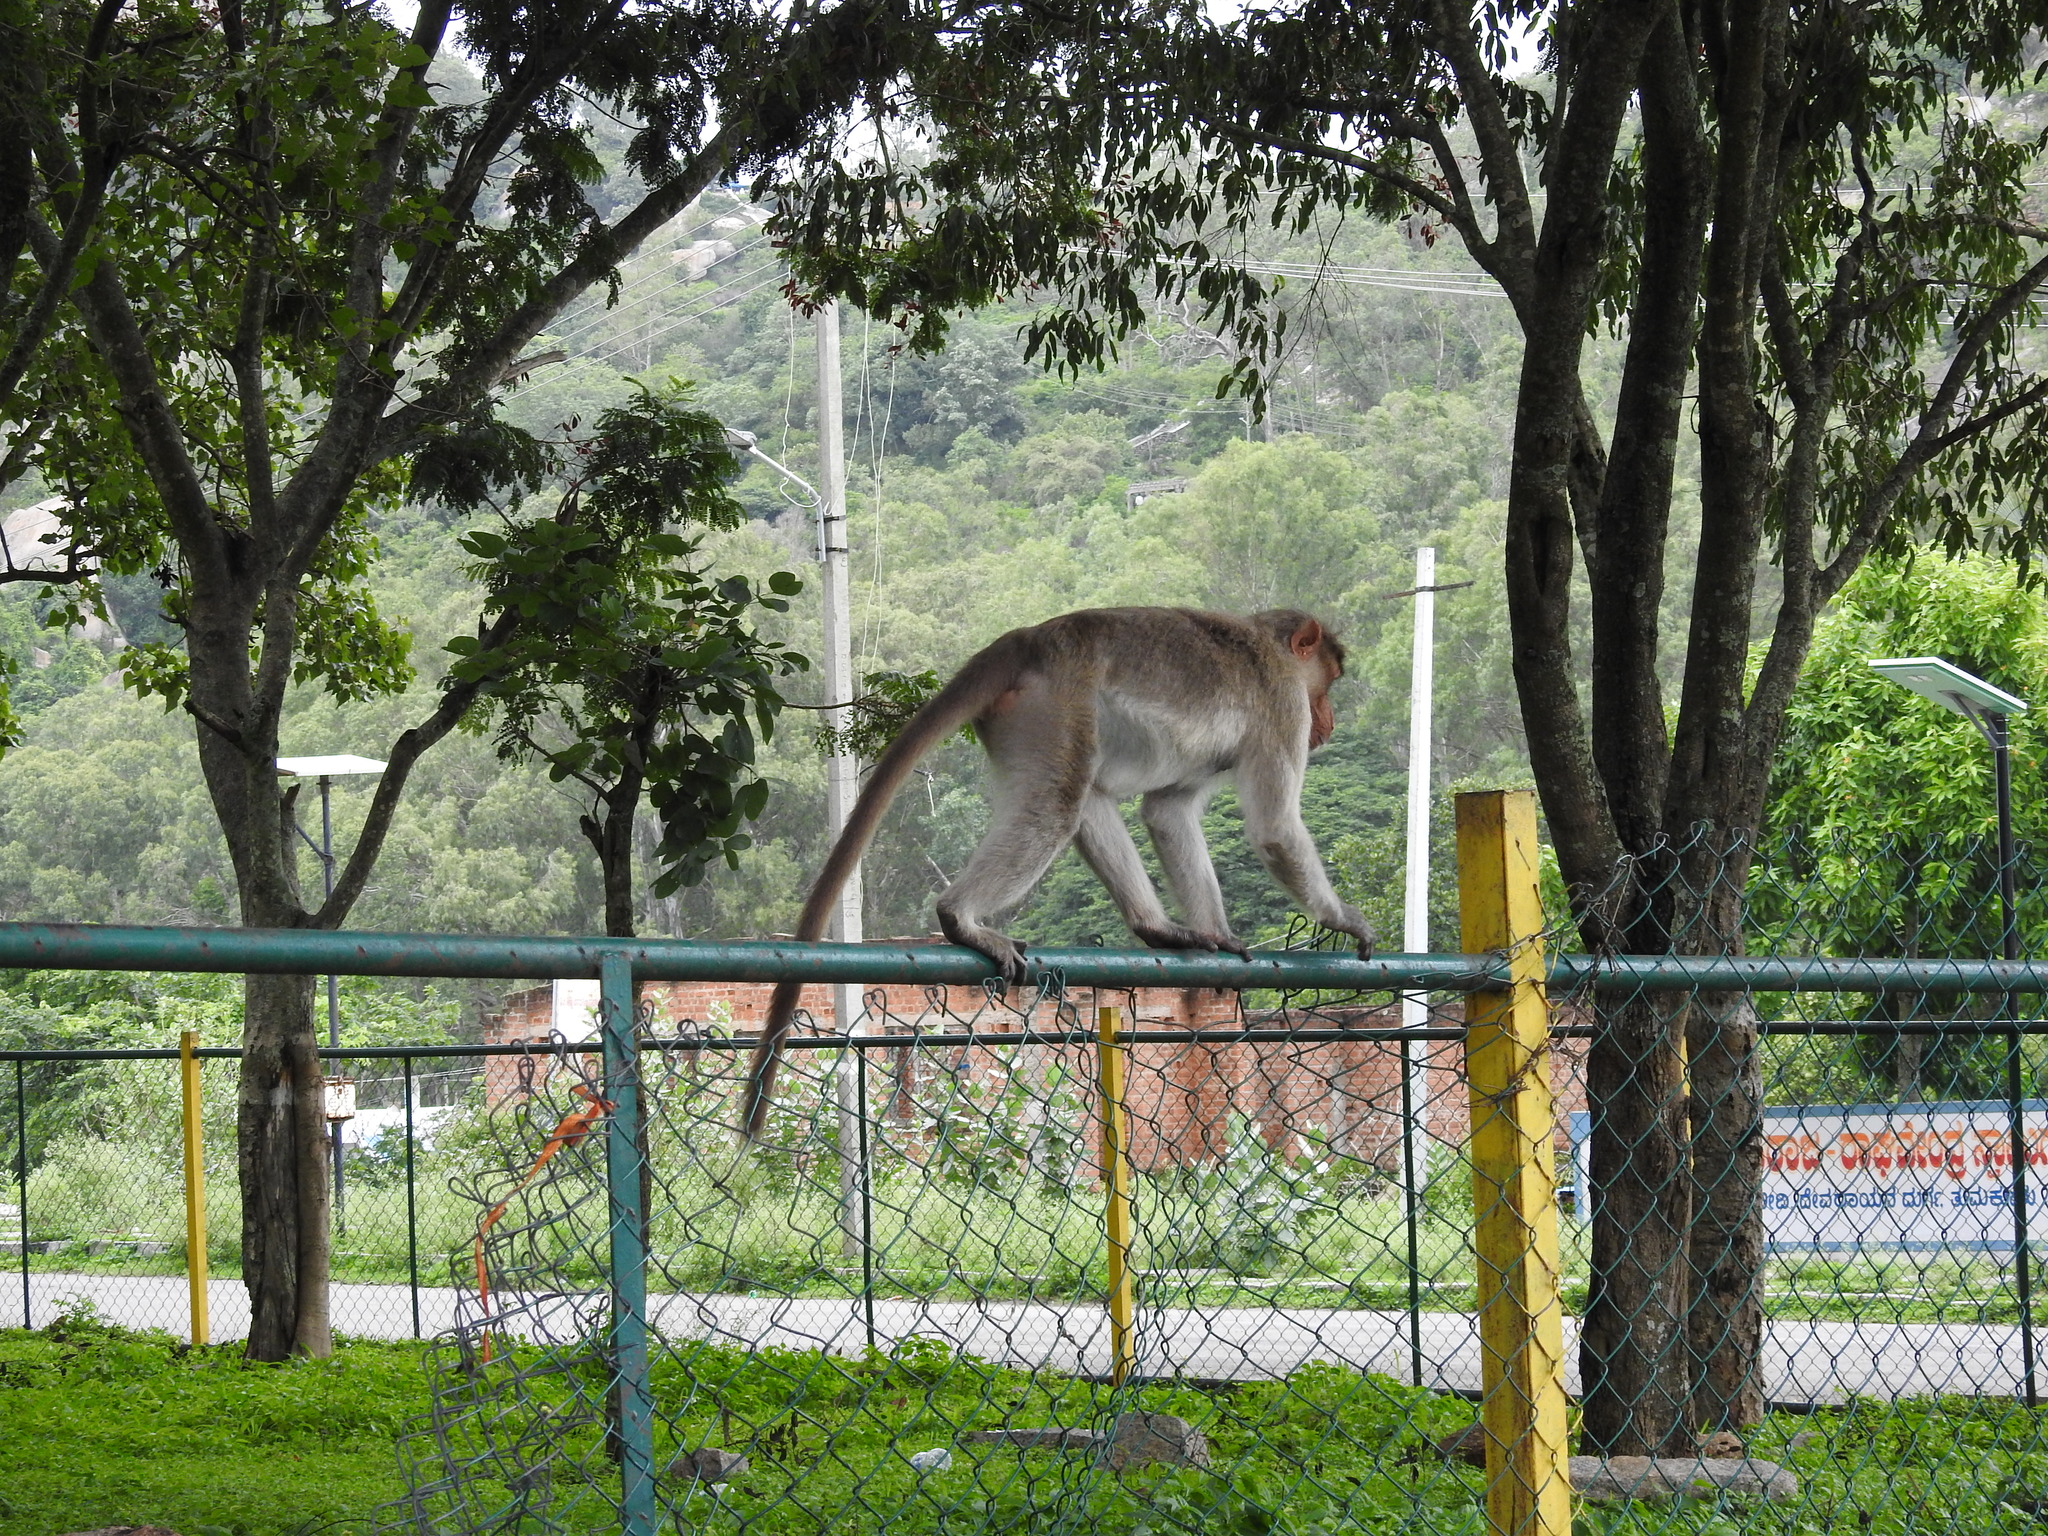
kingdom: Animalia
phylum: Chordata
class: Mammalia
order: Primates
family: Cercopithecidae
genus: Macaca
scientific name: Macaca radiata
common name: Bonnet macaque
